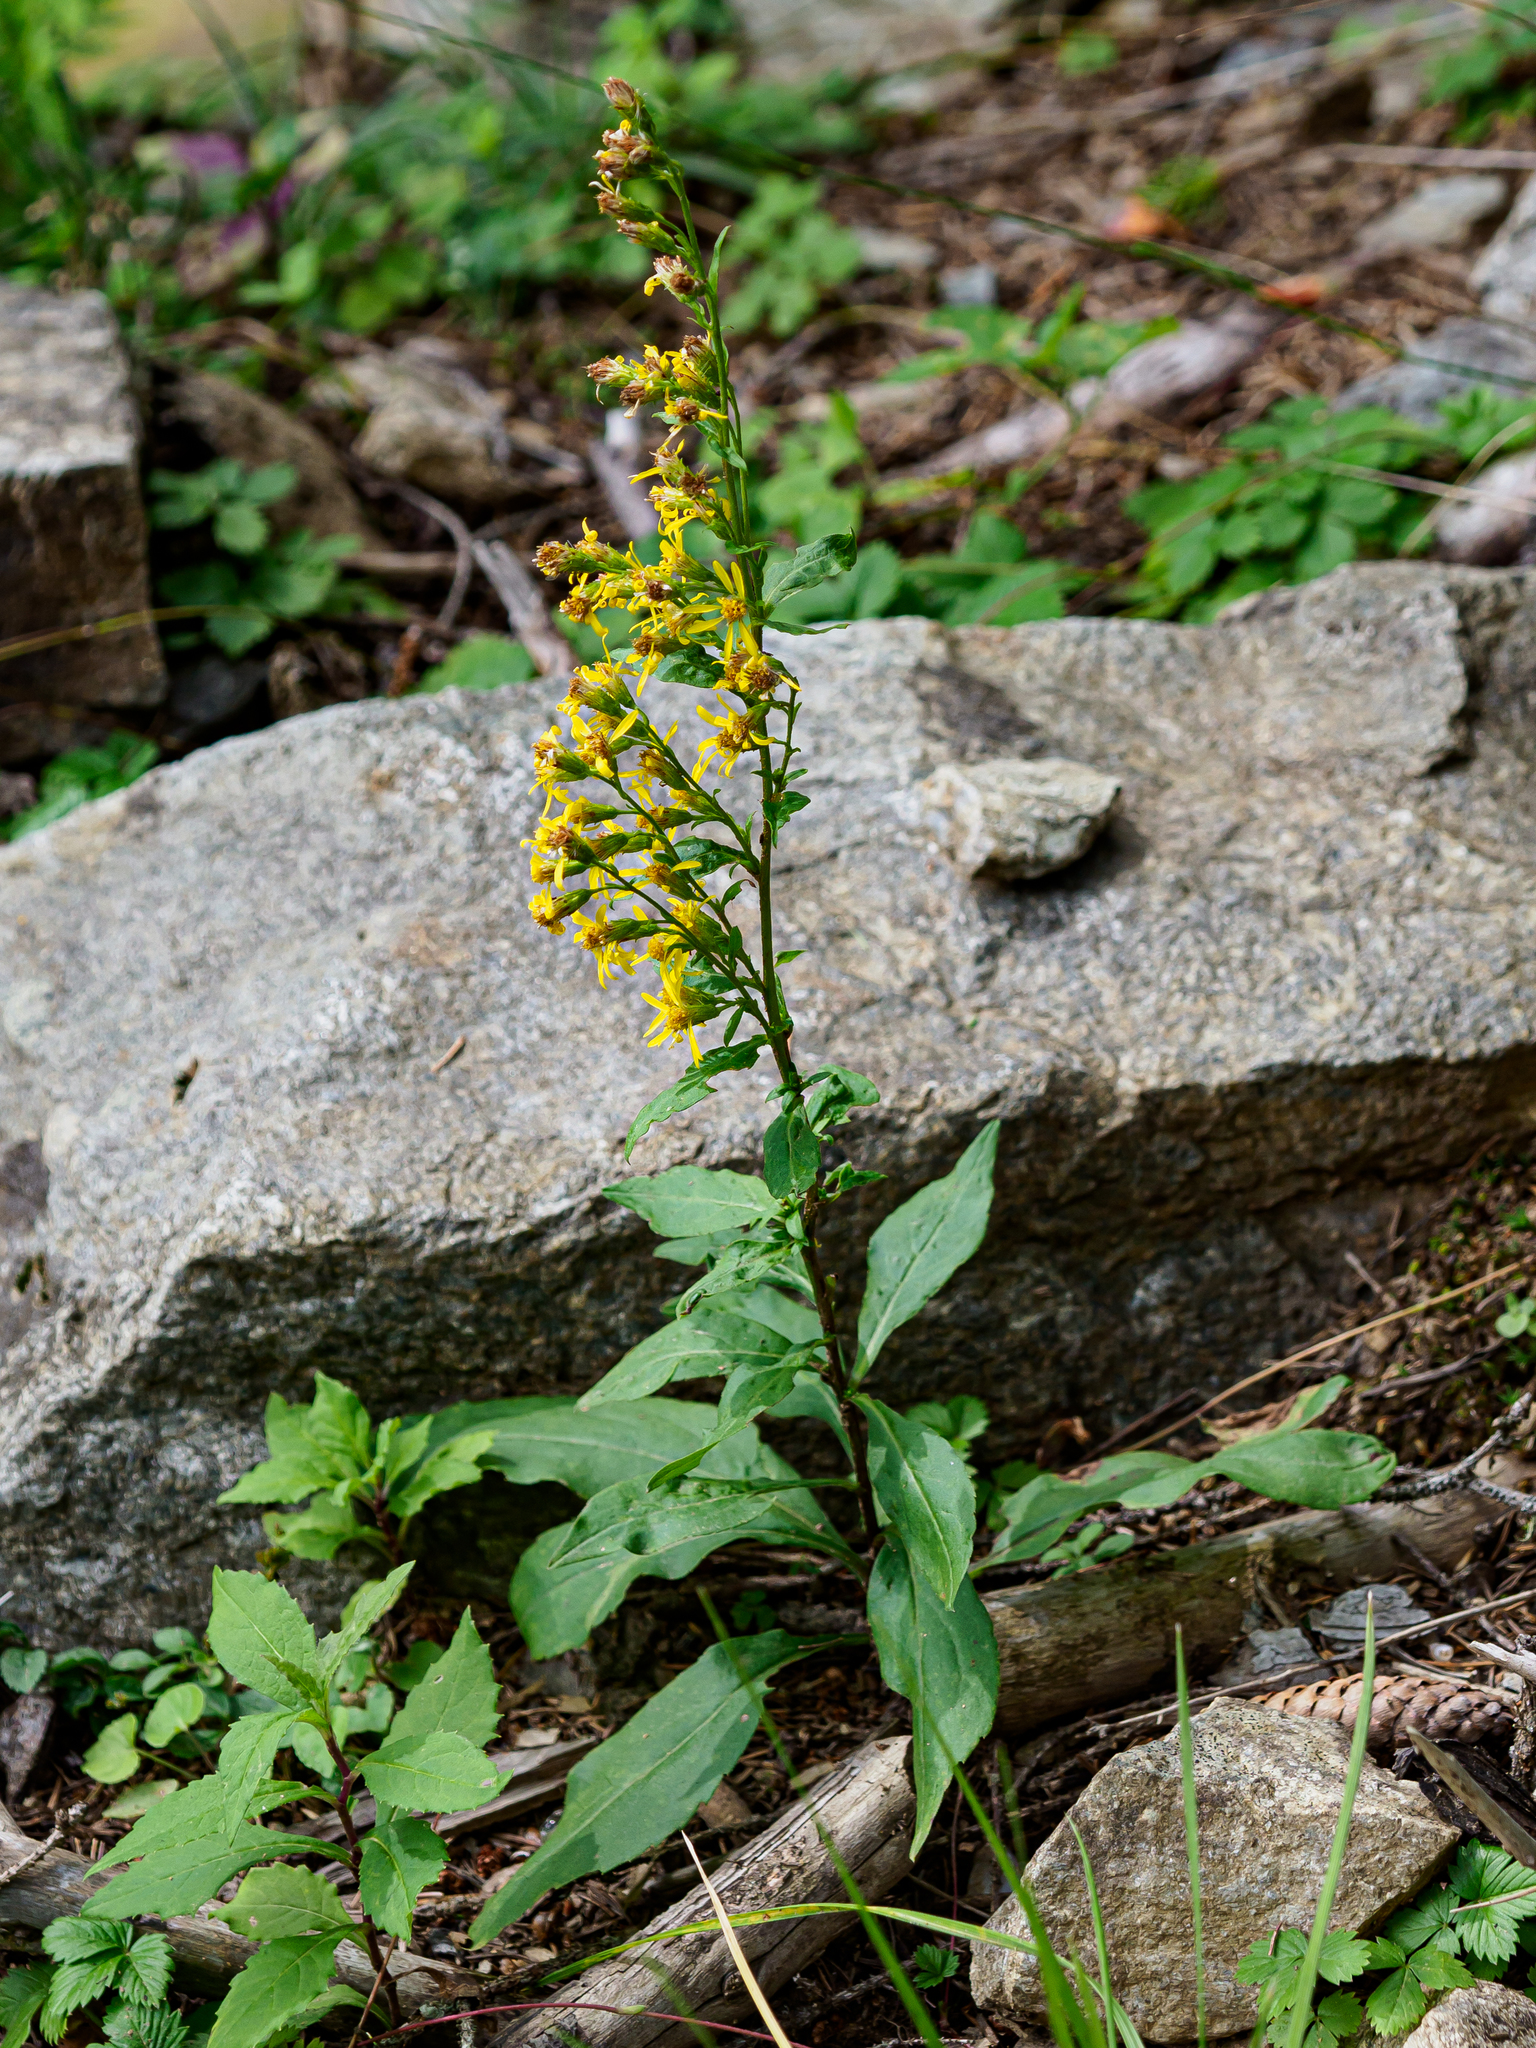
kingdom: Plantae
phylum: Tracheophyta
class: Magnoliopsida
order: Asterales
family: Asteraceae
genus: Solidago
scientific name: Solidago virgaurea
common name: Goldenrod
